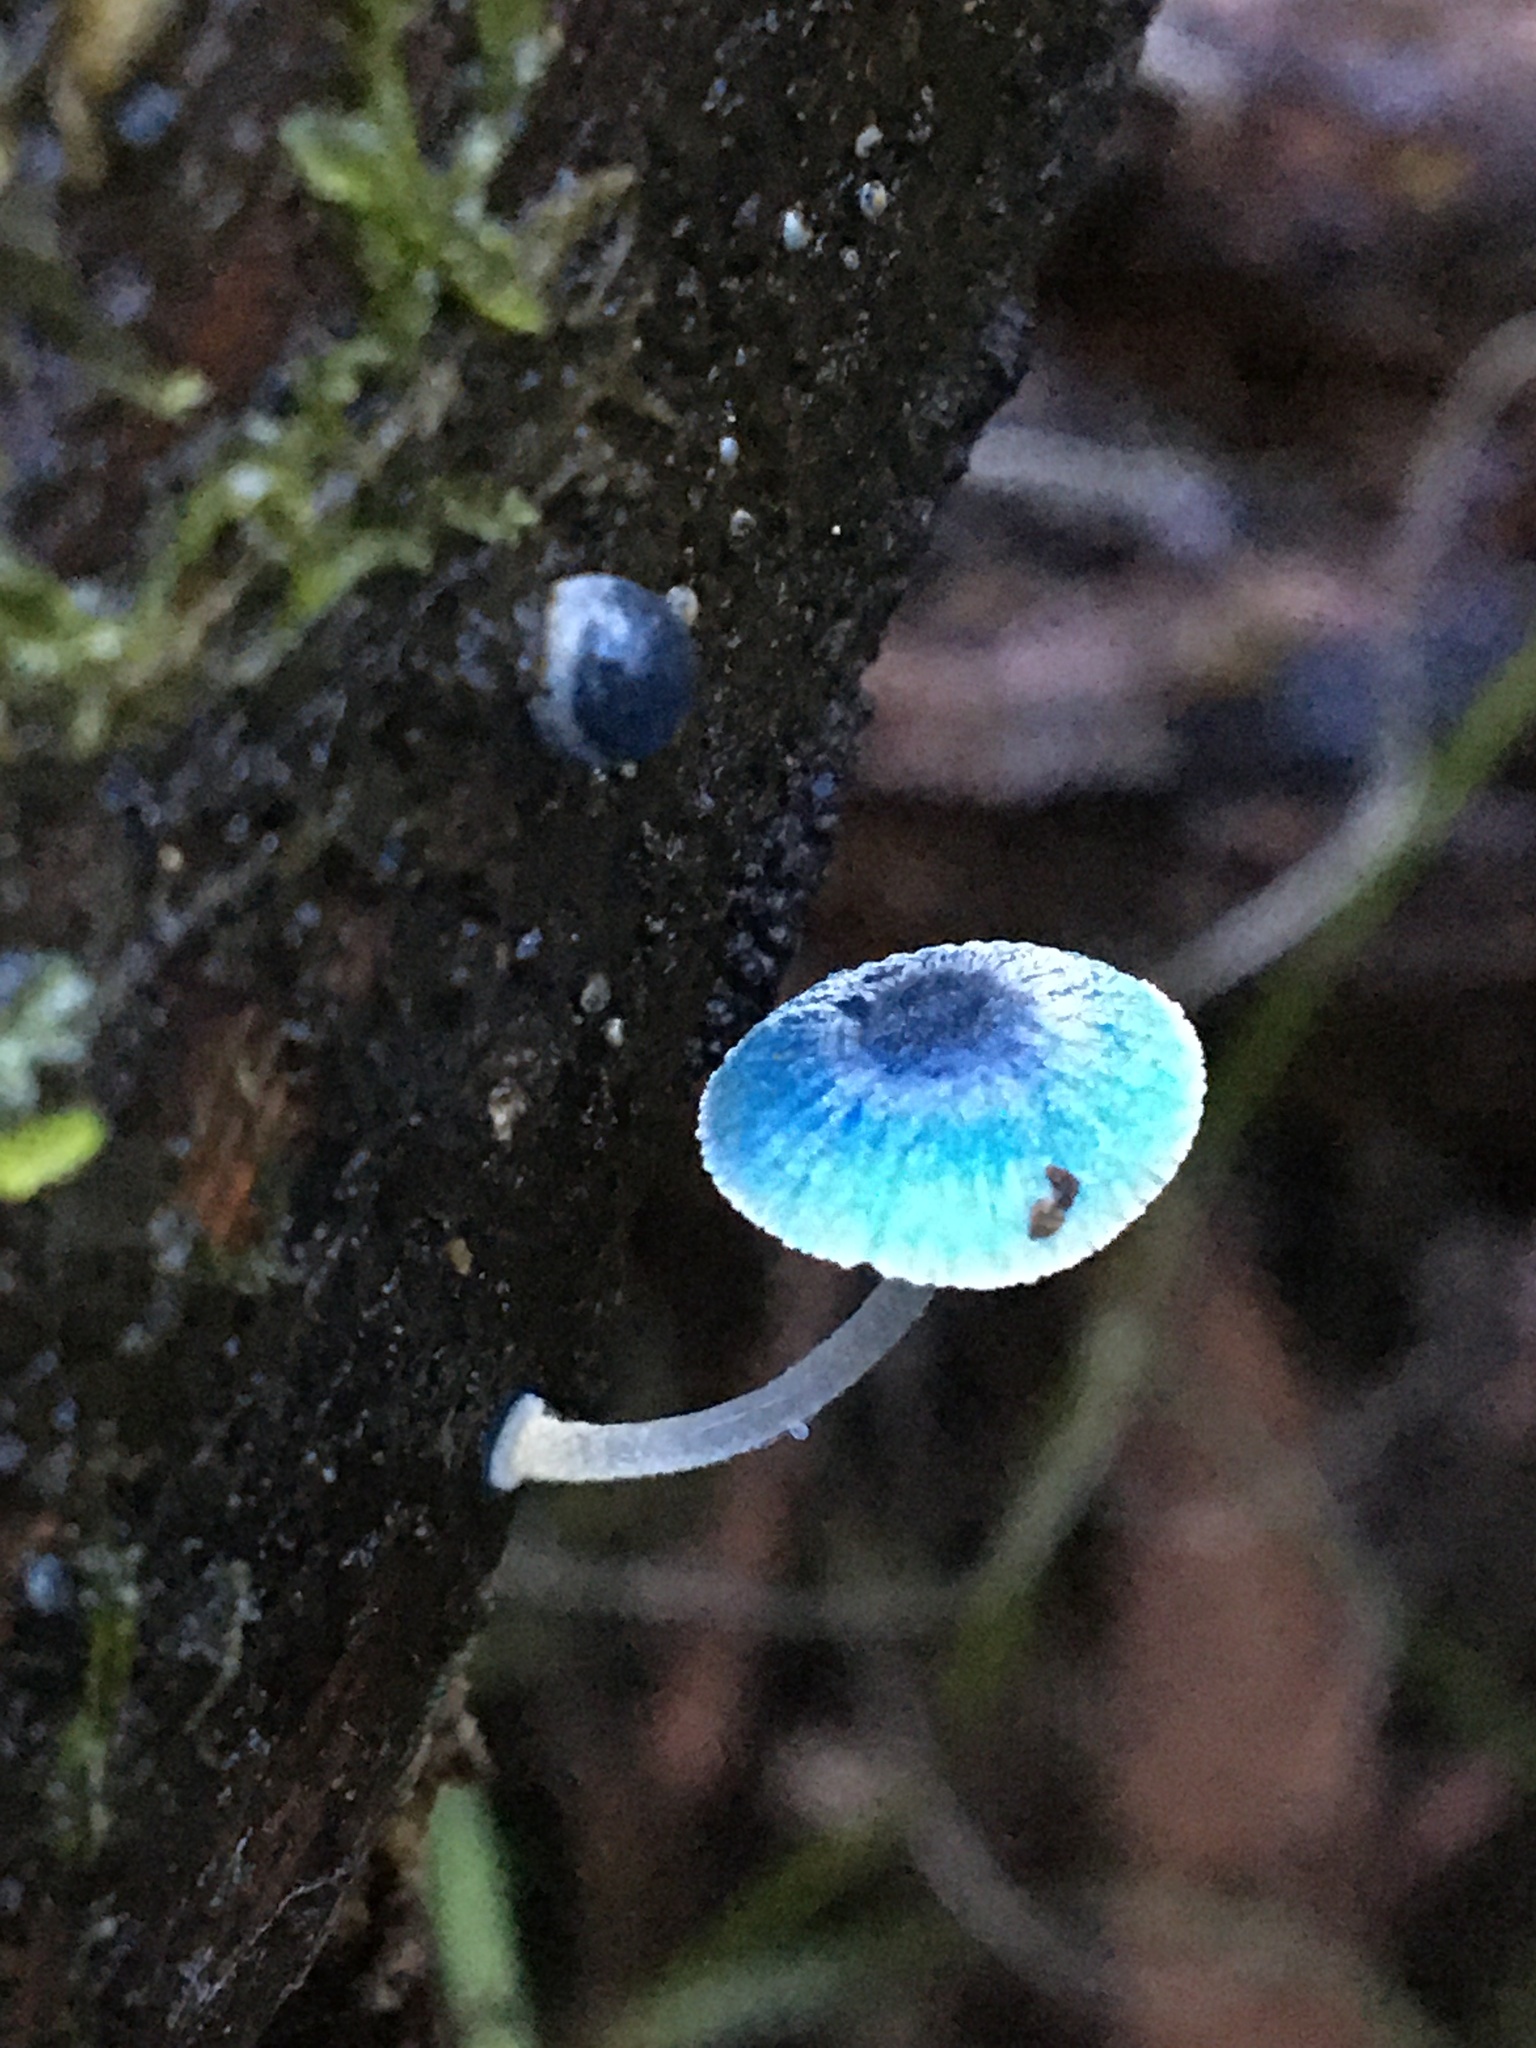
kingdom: Fungi
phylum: Basidiomycota
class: Agaricomycetes
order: Agaricales
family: Mycenaceae
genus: Mycena
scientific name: Mycena interrupta
